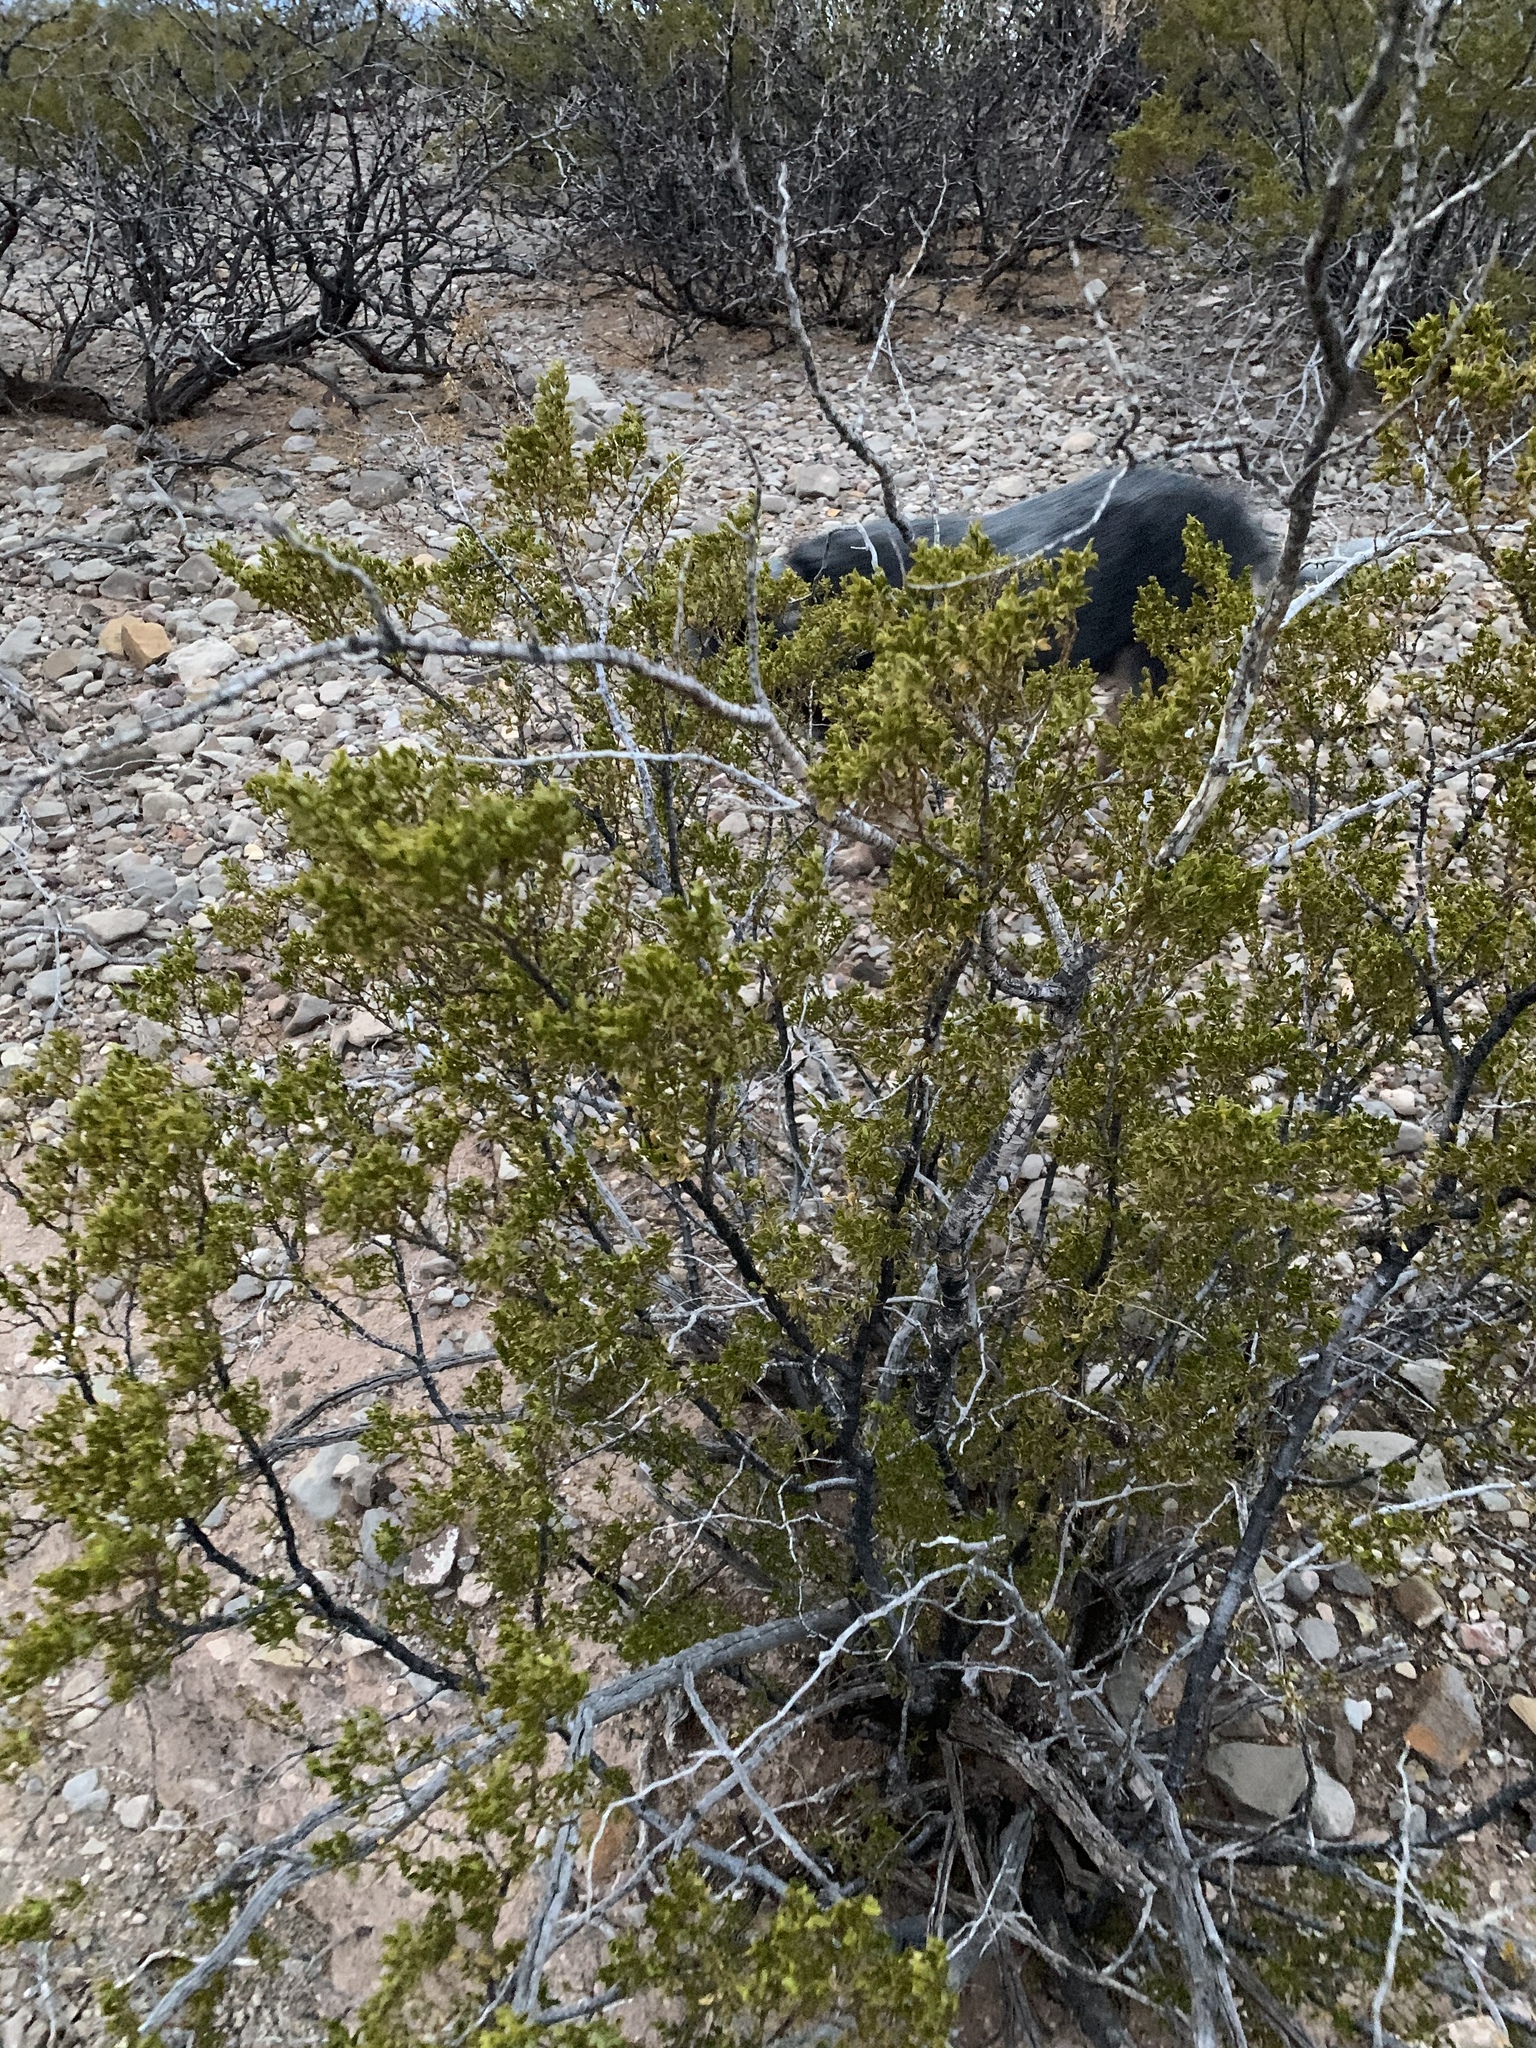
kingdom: Plantae
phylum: Tracheophyta
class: Magnoliopsida
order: Zygophyllales
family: Zygophyllaceae
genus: Larrea
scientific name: Larrea tridentata
